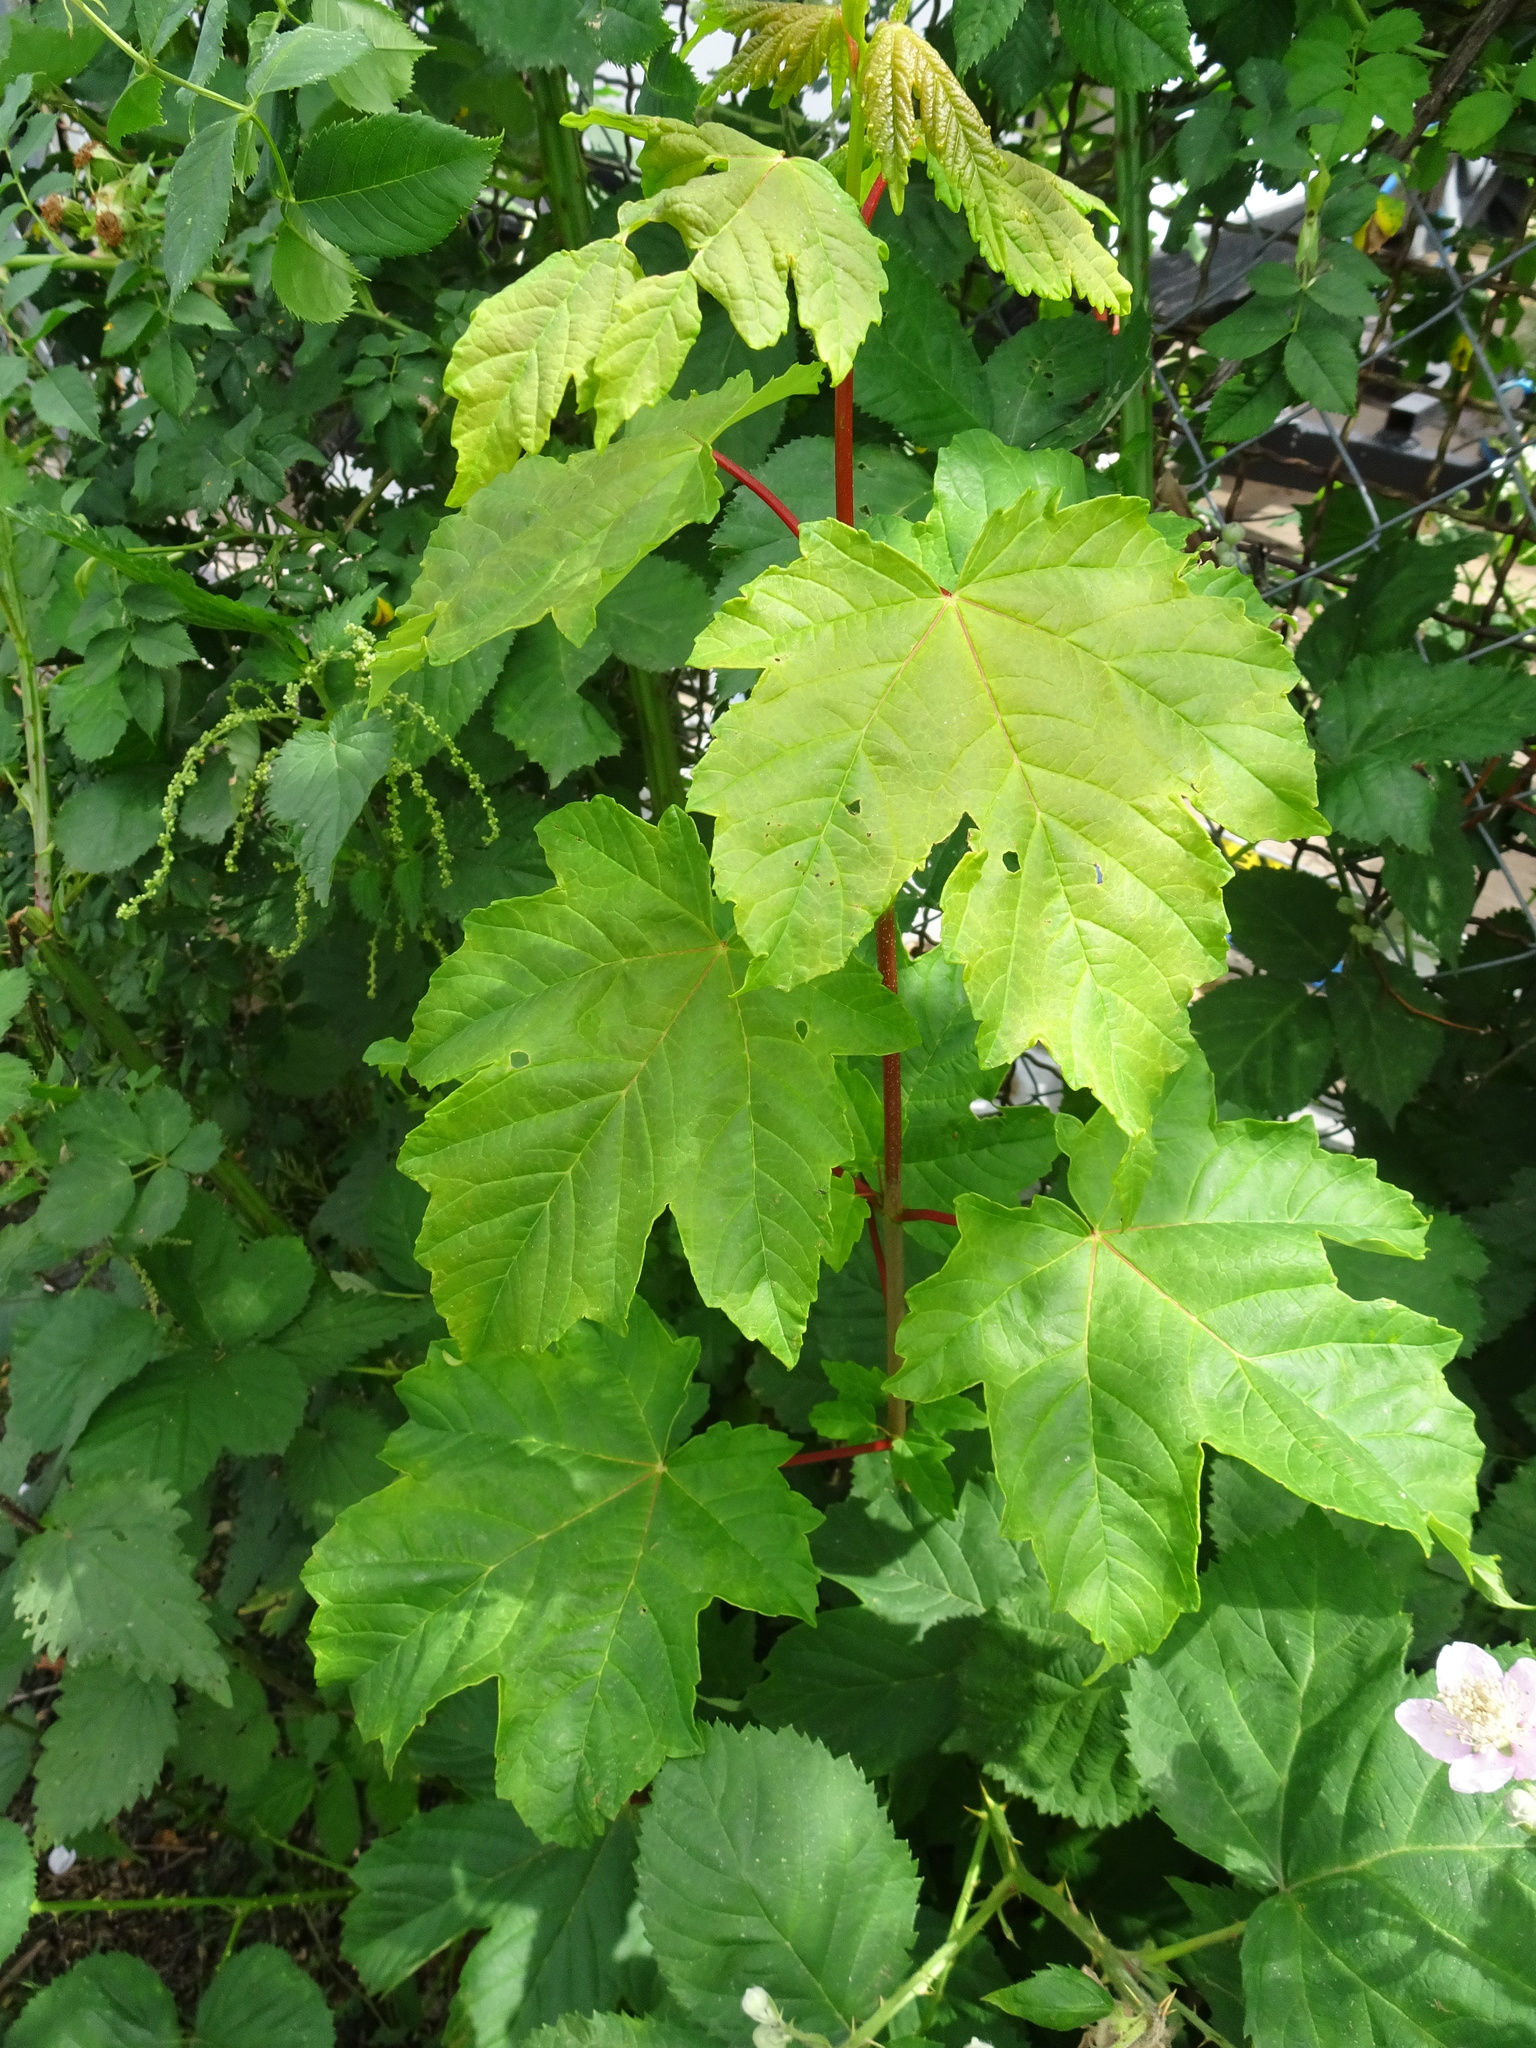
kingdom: Plantae
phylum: Tracheophyta
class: Magnoliopsida
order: Sapindales
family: Sapindaceae
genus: Acer
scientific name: Acer pseudoplatanus
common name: Sycamore
